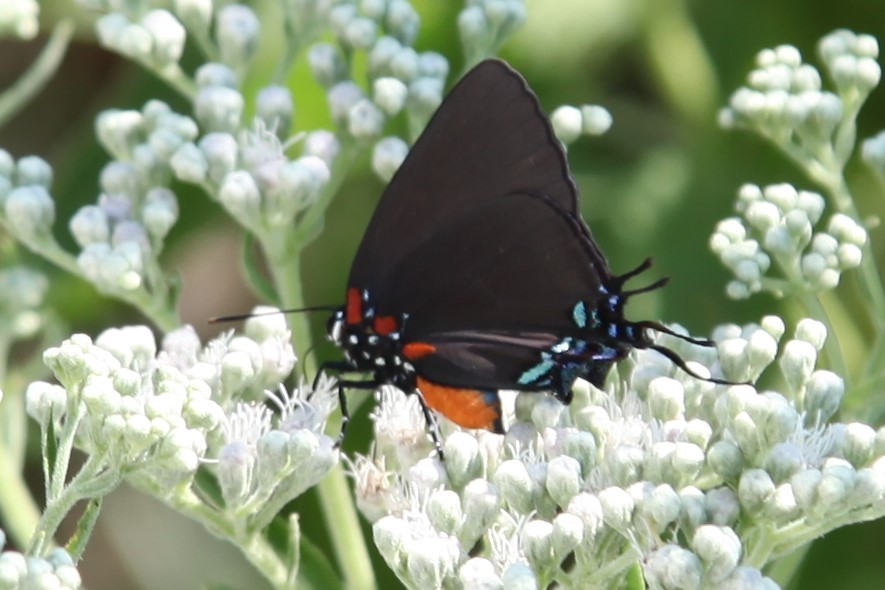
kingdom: Animalia
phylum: Arthropoda
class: Insecta
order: Lepidoptera
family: Lycaenidae
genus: Atlides
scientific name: Atlides halesus
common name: Great purple hairstreak
